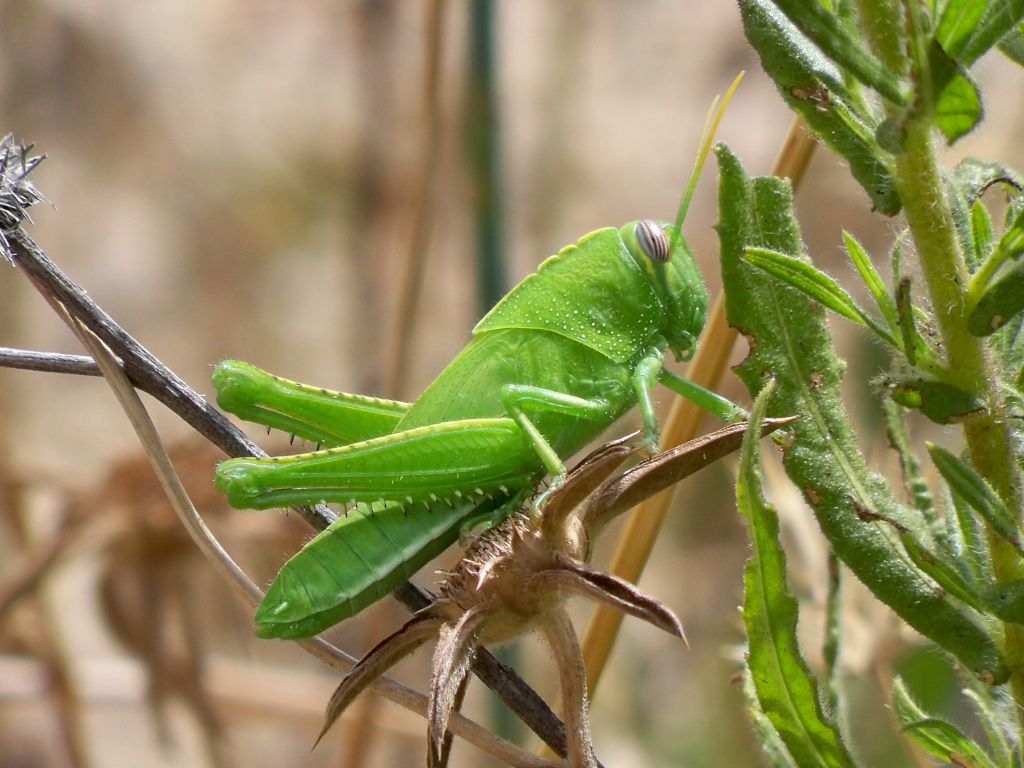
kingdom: Animalia
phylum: Arthropoda
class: Insecta
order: Orthoptera
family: Acrididae
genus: Anacridium
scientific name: Anacridium aegyptium
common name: Egyptian grasshopper
